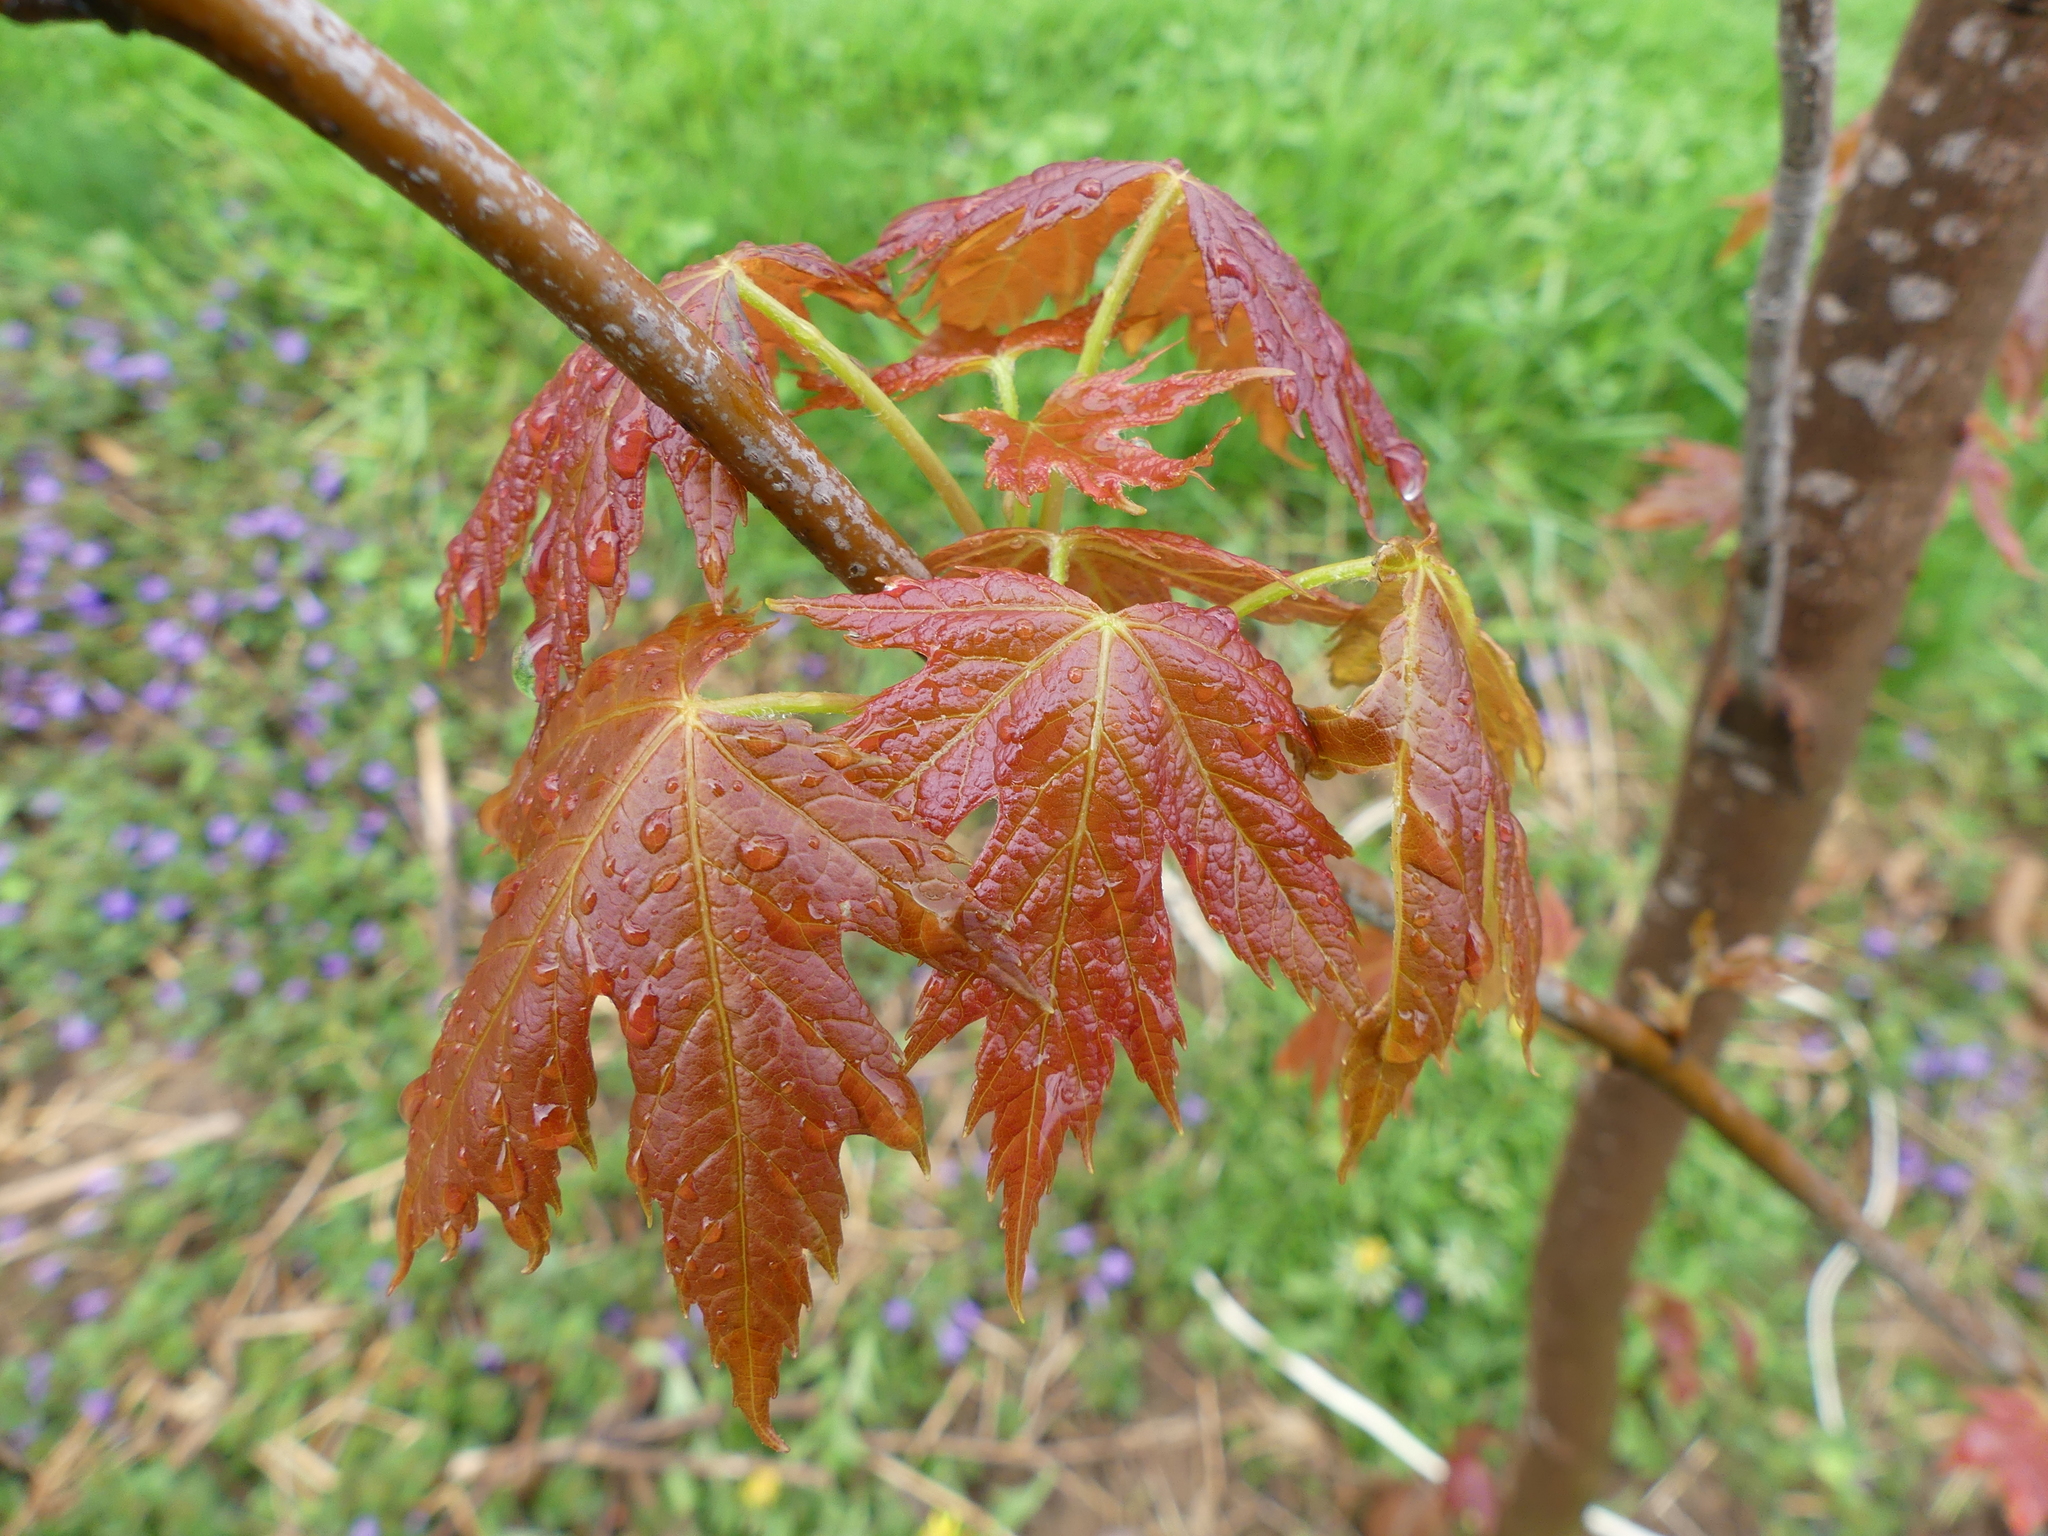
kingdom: Plantae
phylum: Tracheophyta
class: Magnoliopsida
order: Sapindales
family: Sapindaceae
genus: Acer
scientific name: Acer saccharinum
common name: Silver maple
